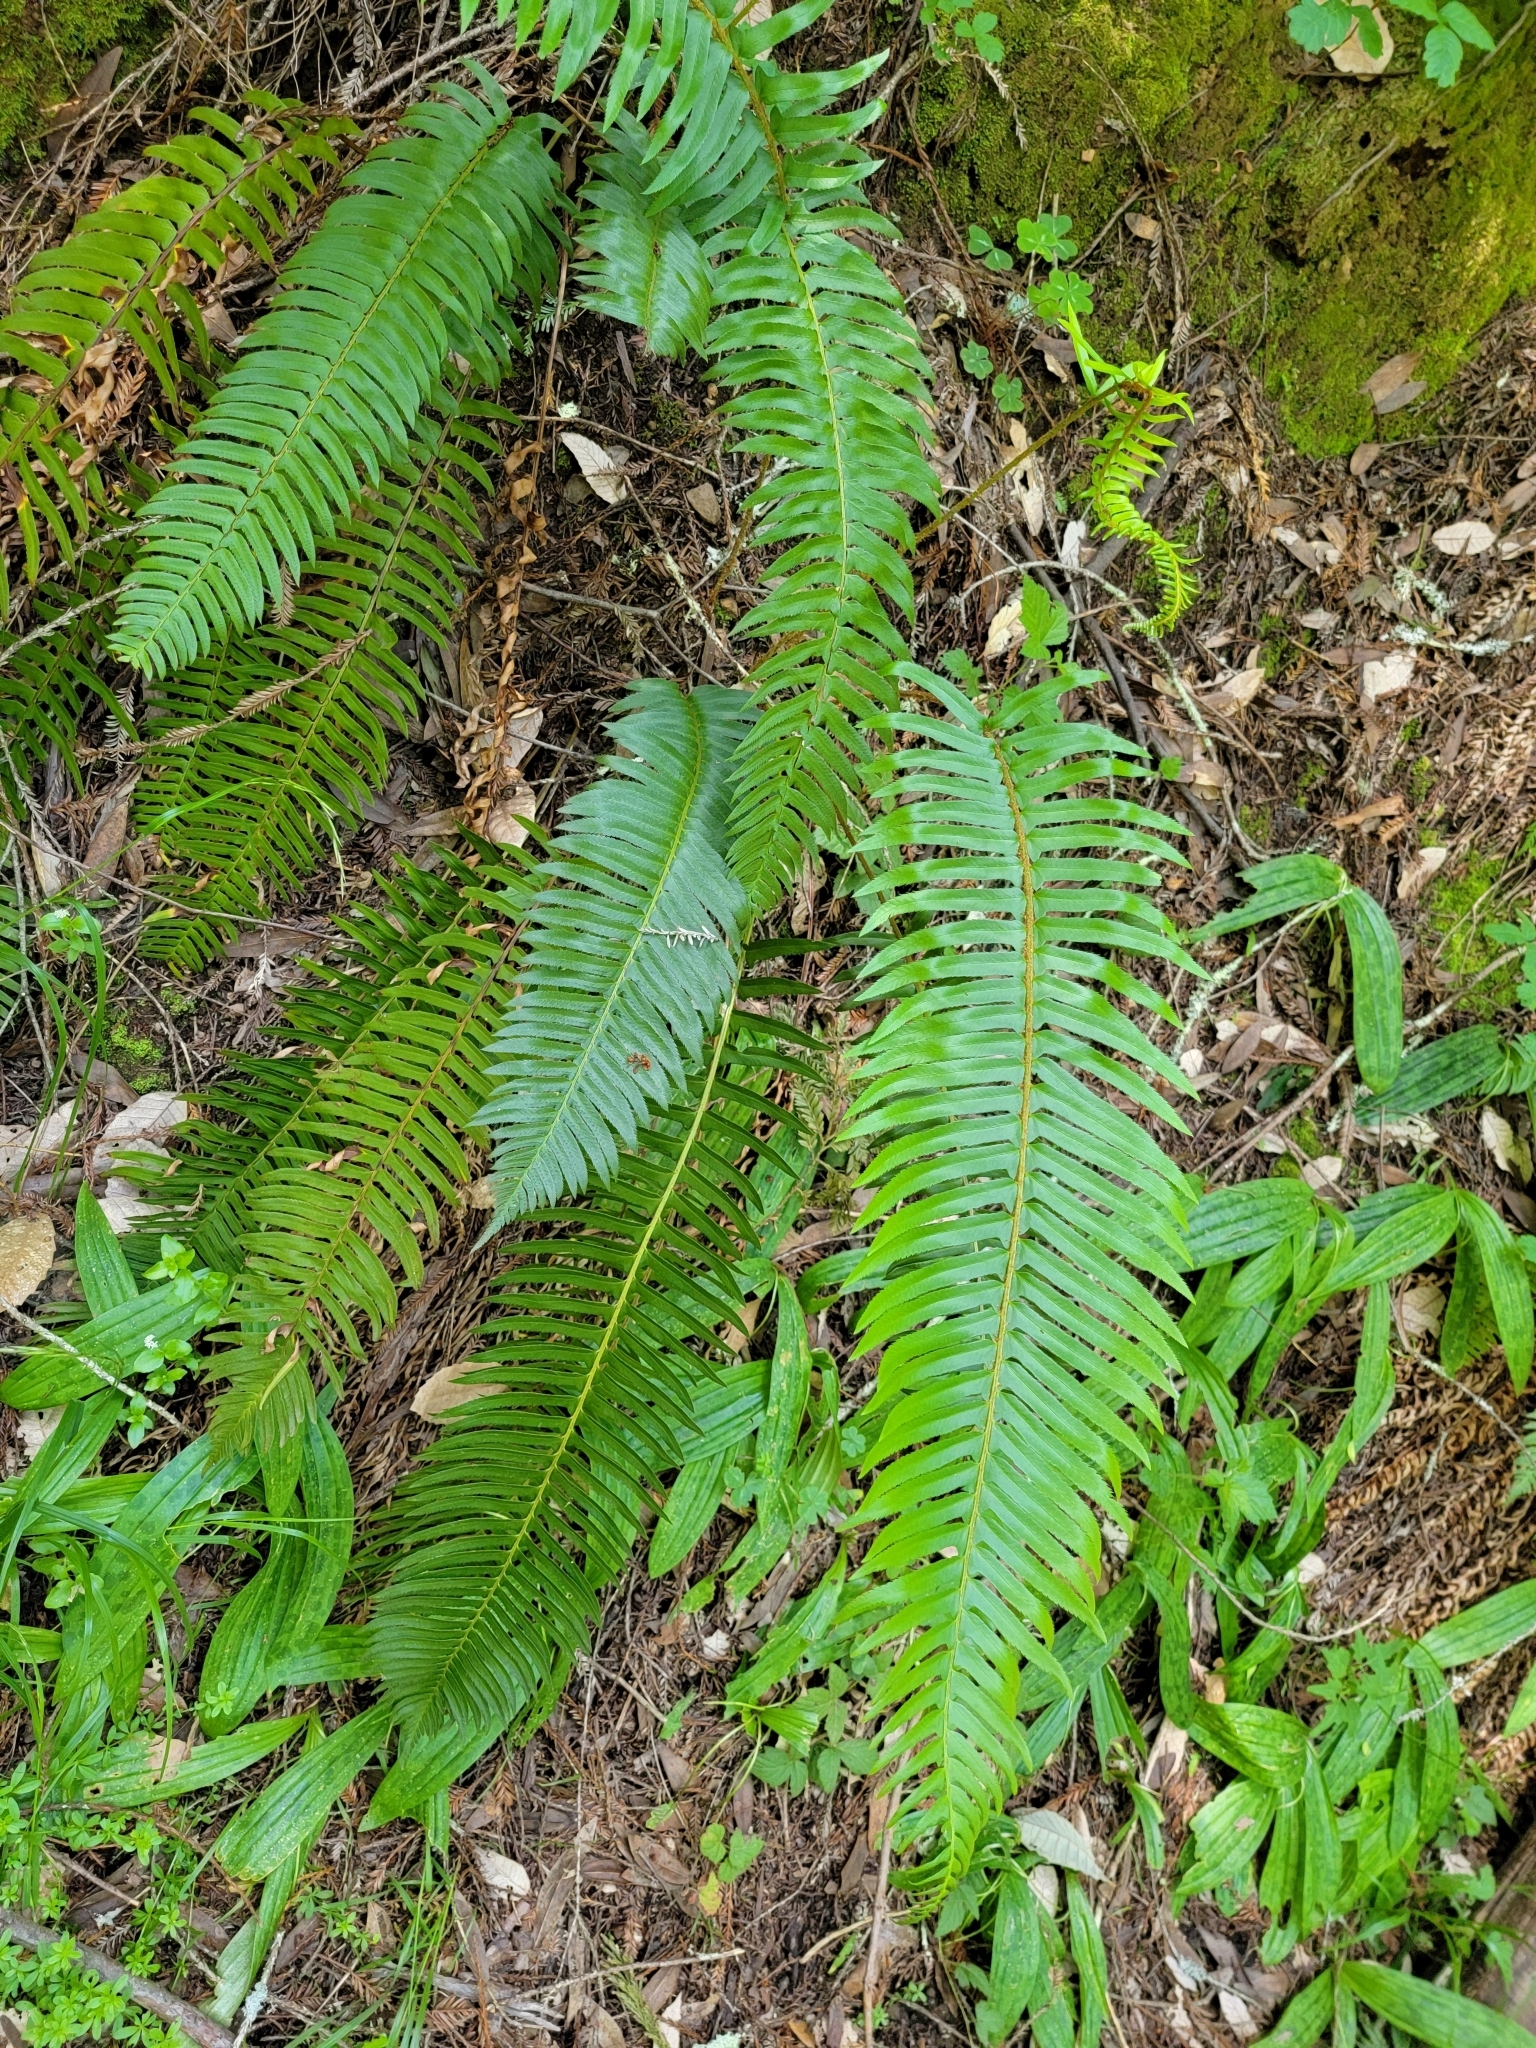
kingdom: Plantae
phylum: Tracheophyta
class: Polypodiopsida
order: Polypodiales
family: Dryopteridaceae
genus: Polystichum
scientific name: Polystichum munitum
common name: Western sword-fern
